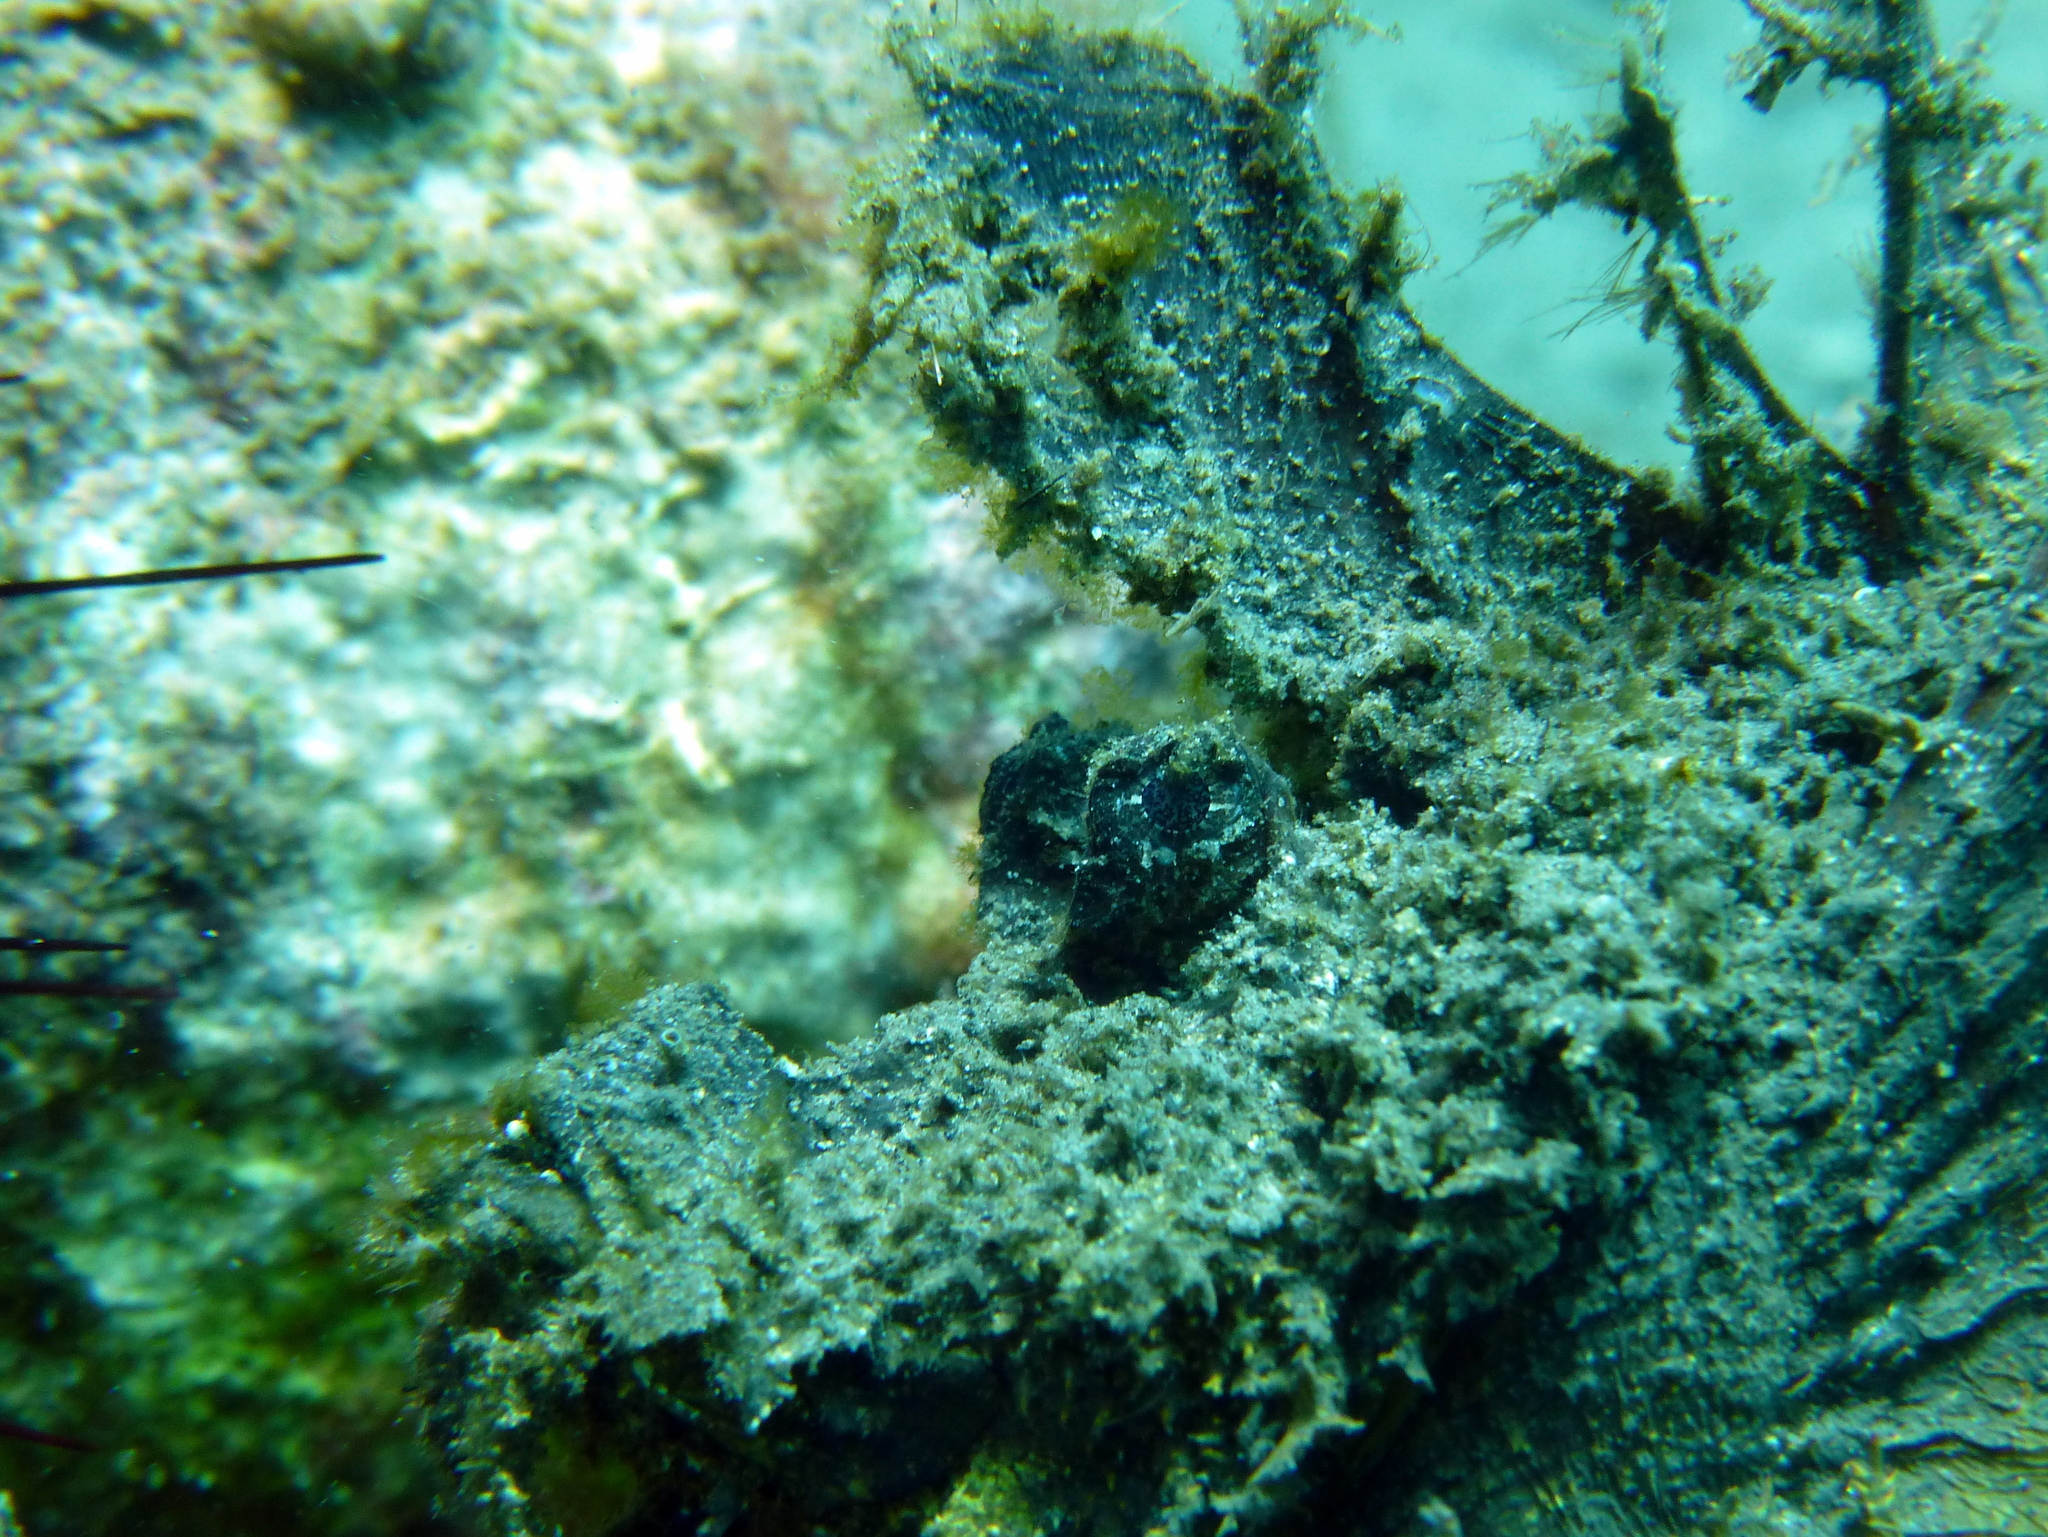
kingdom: Animalia
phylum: Chordata
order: Scorpaeniformes
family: Synanceiidae
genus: Inimicus
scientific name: Inimicus didactylus
